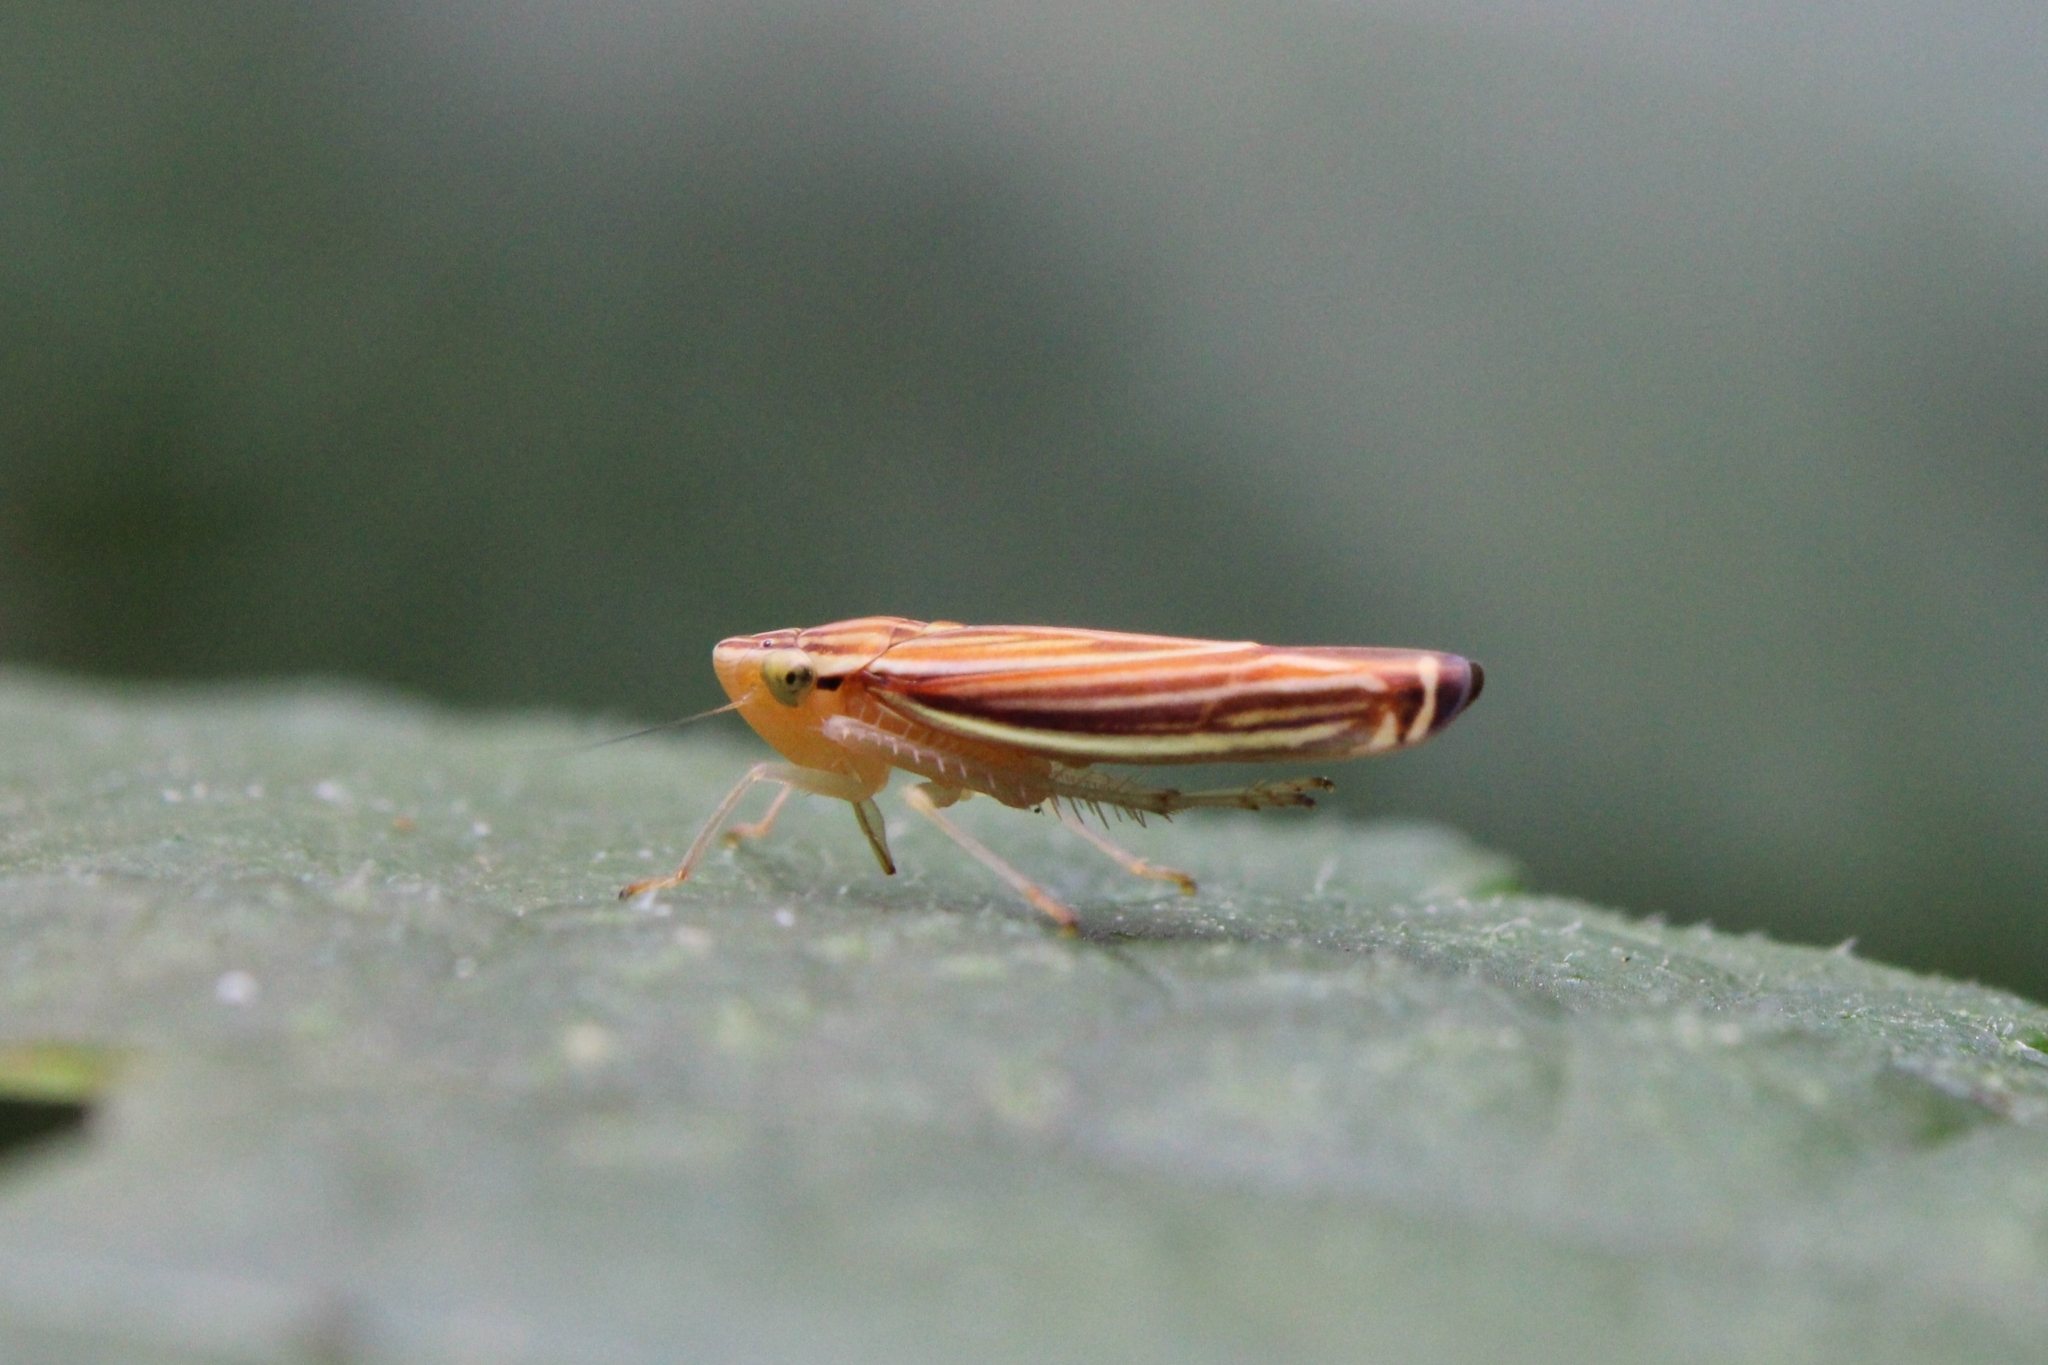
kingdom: Animalia
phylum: Arthropoda
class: Insecta
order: Hemiptera
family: Cicadellidae
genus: Sibovia
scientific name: Sibovia occatoria
